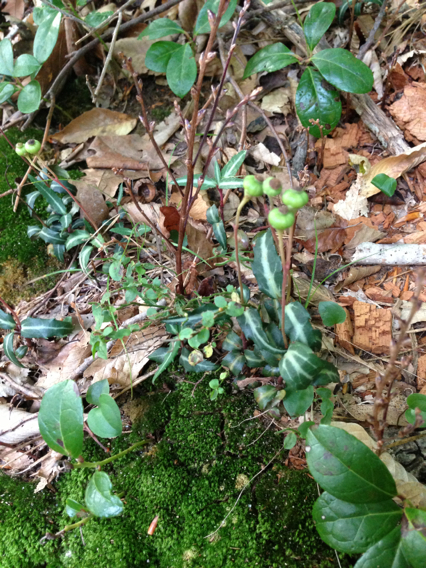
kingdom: Plantae
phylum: Tracheophyta
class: Magnoliopsida
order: Ericales
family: Ericaceae
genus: Chimaphila
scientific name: Chimaphila maculata
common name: Spotted pipsissewa
